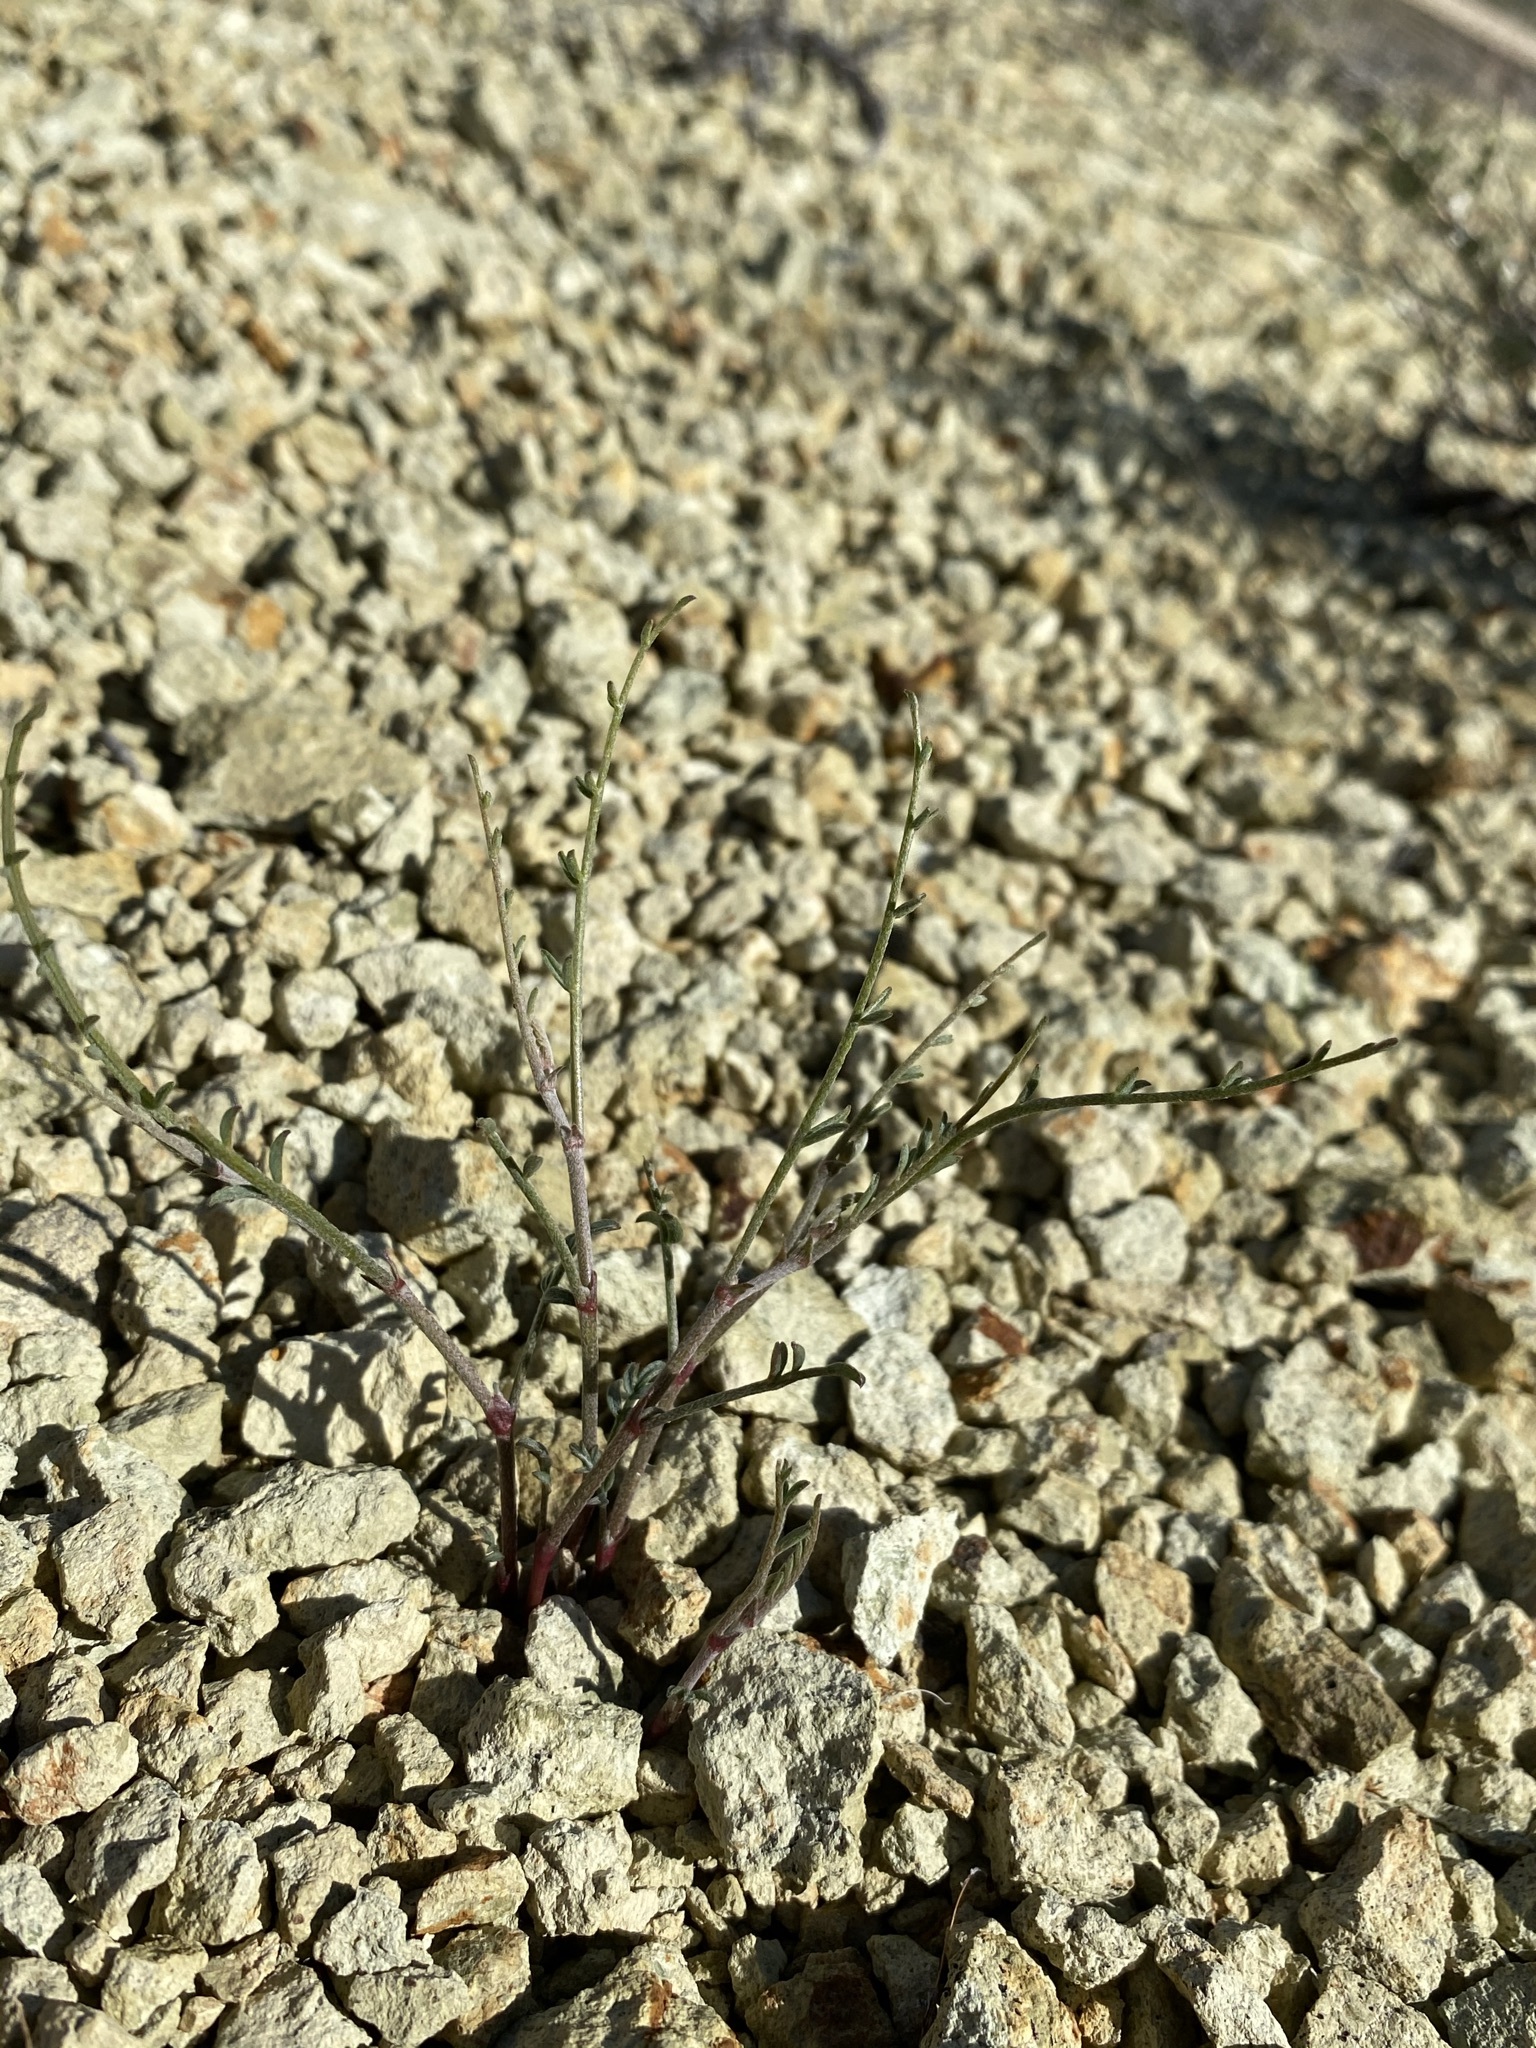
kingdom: Plantae
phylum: Tracheophyta
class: Magnoliopsida
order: Fabales
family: Fabaceae
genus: Astragalus
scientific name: Astragalus sterilis
